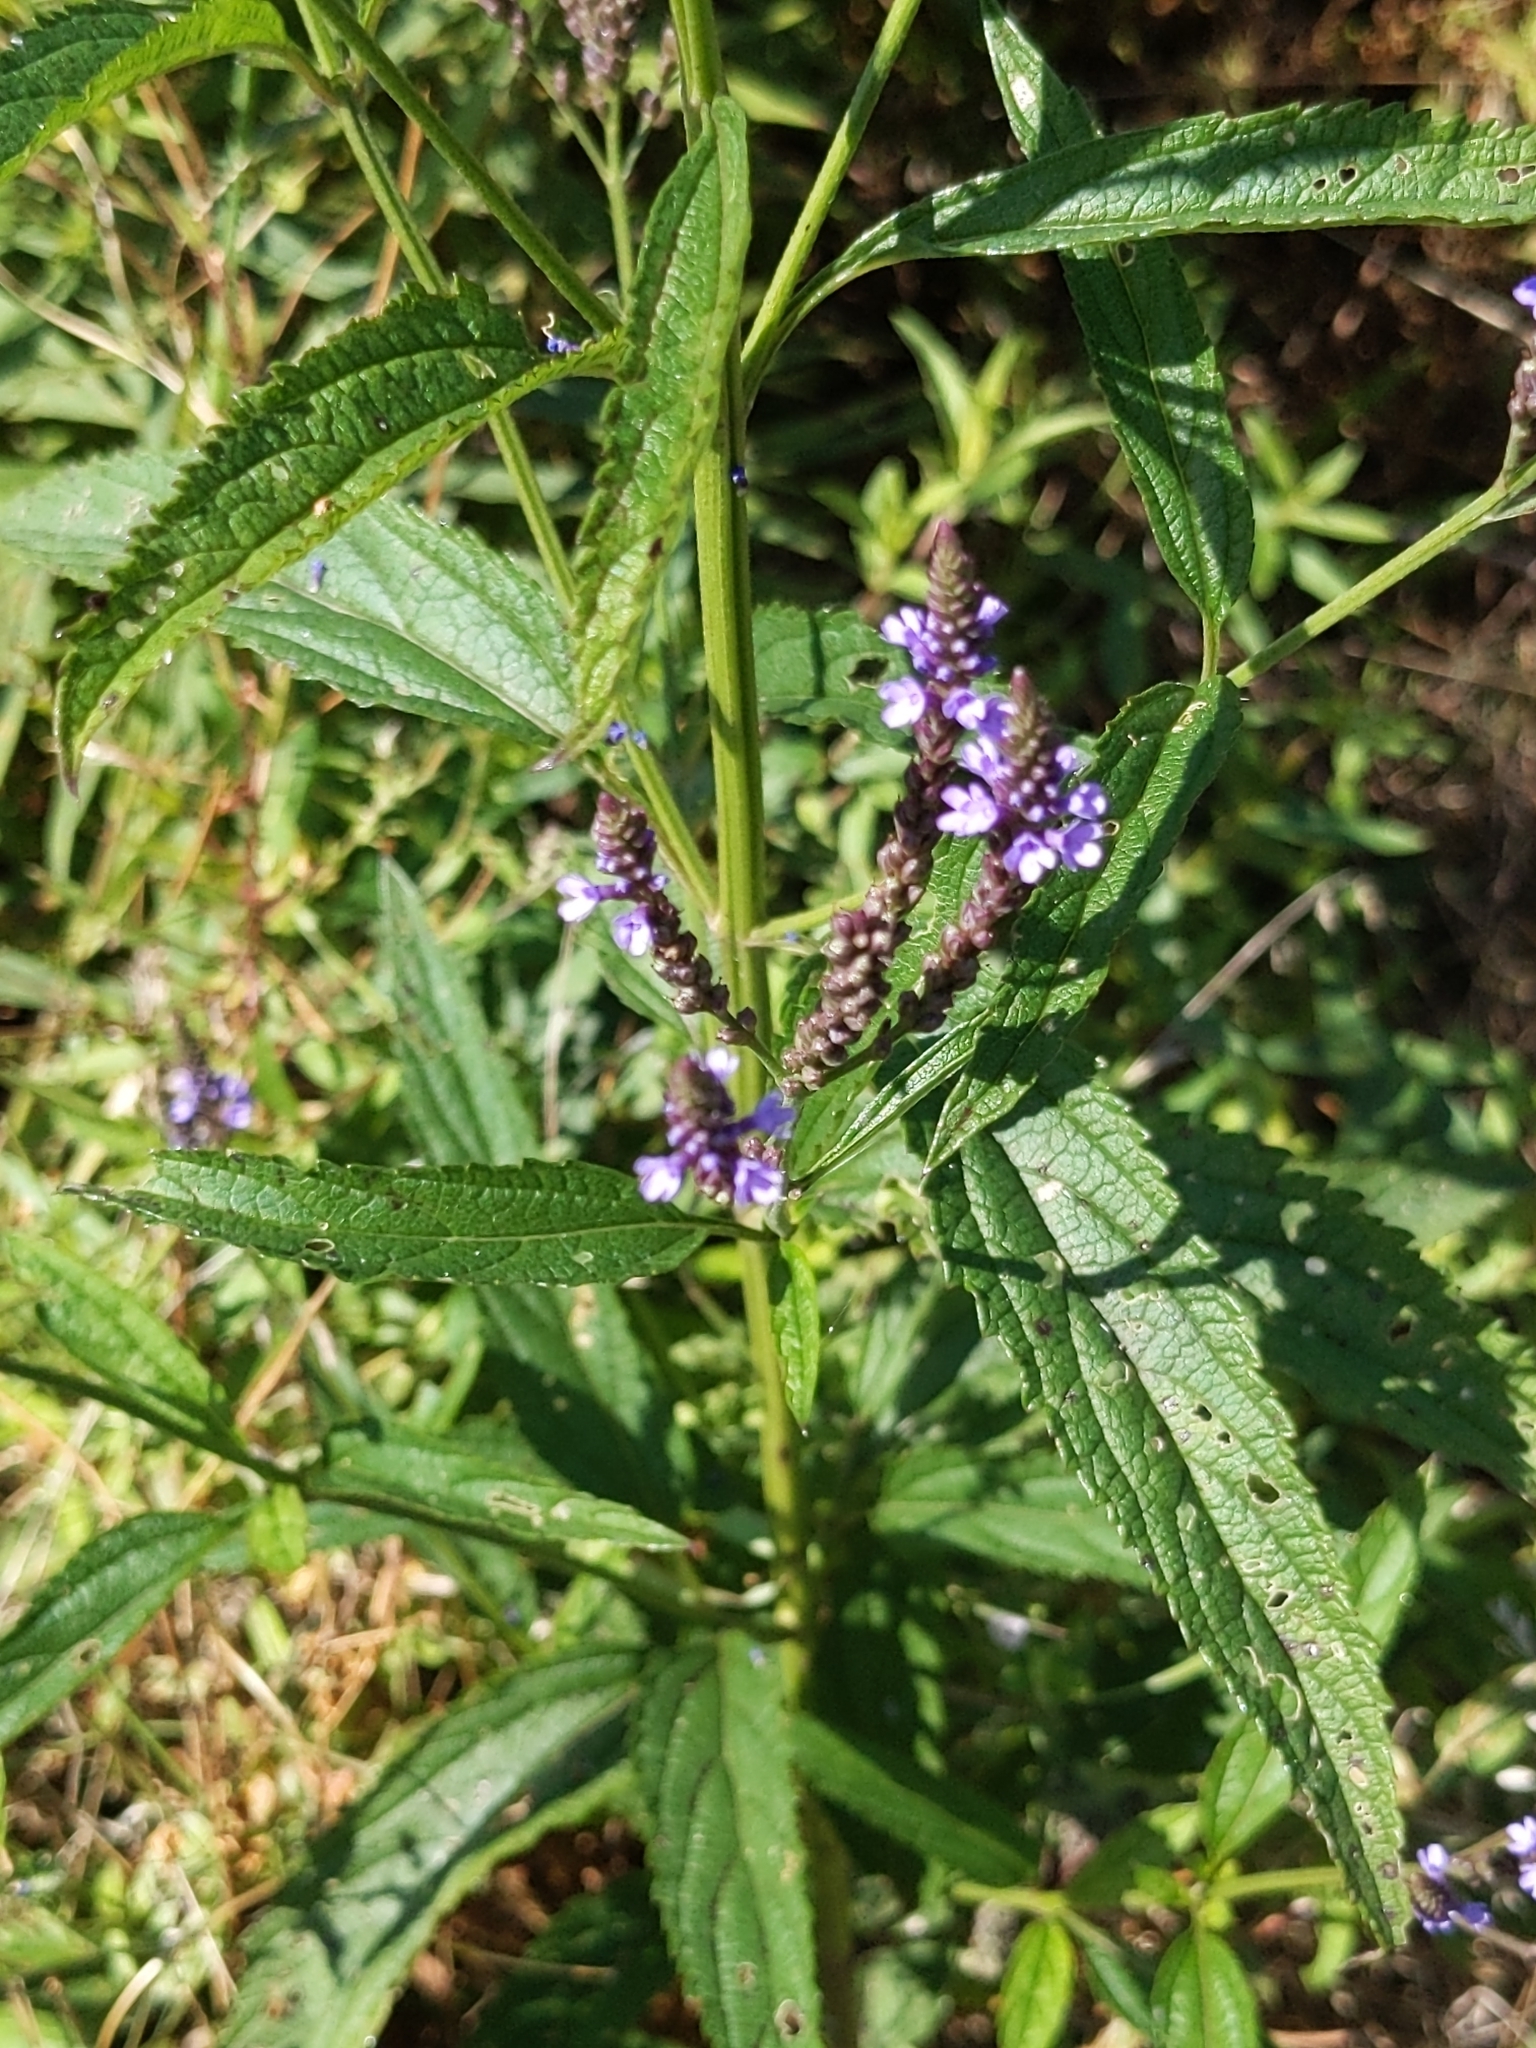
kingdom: Plantae
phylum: Tracheophyta
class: Magnoliopsida
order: Lamiales
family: Verbenaceae
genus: Verbena
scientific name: Verbena hastata
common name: American blue vervain
